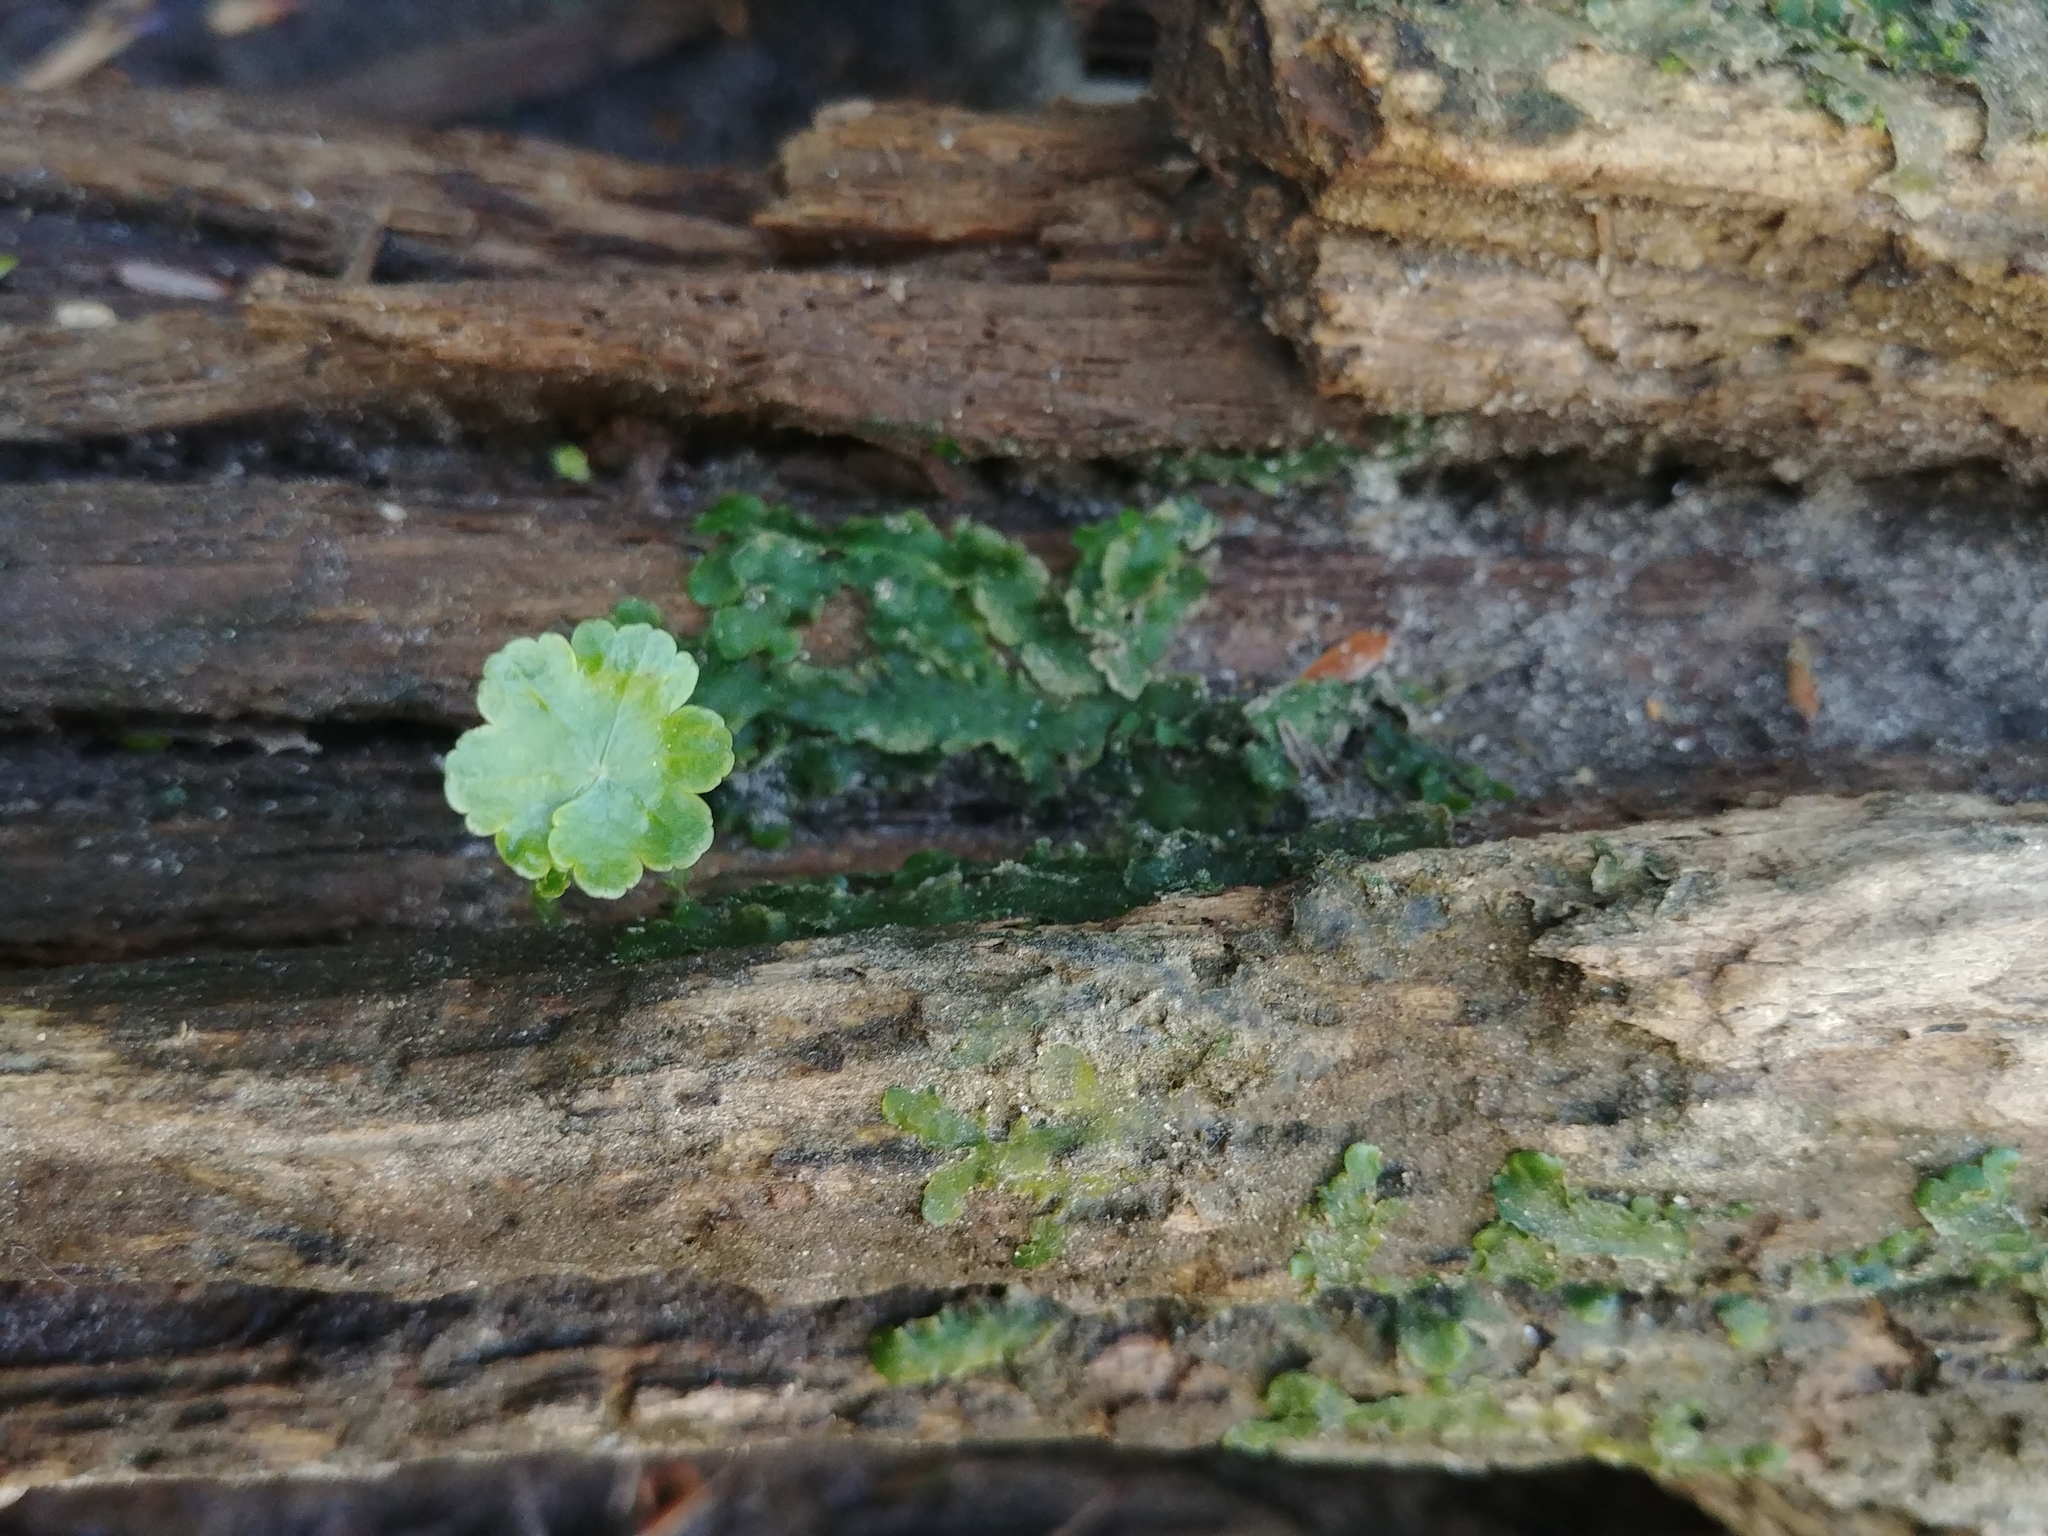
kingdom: Plantae
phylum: Tracheophyta
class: Magnoliopsida
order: Apiales
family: Araliaceae
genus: Hydrocotyle
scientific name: Hydrocotyle americana
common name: American water-pennywort
